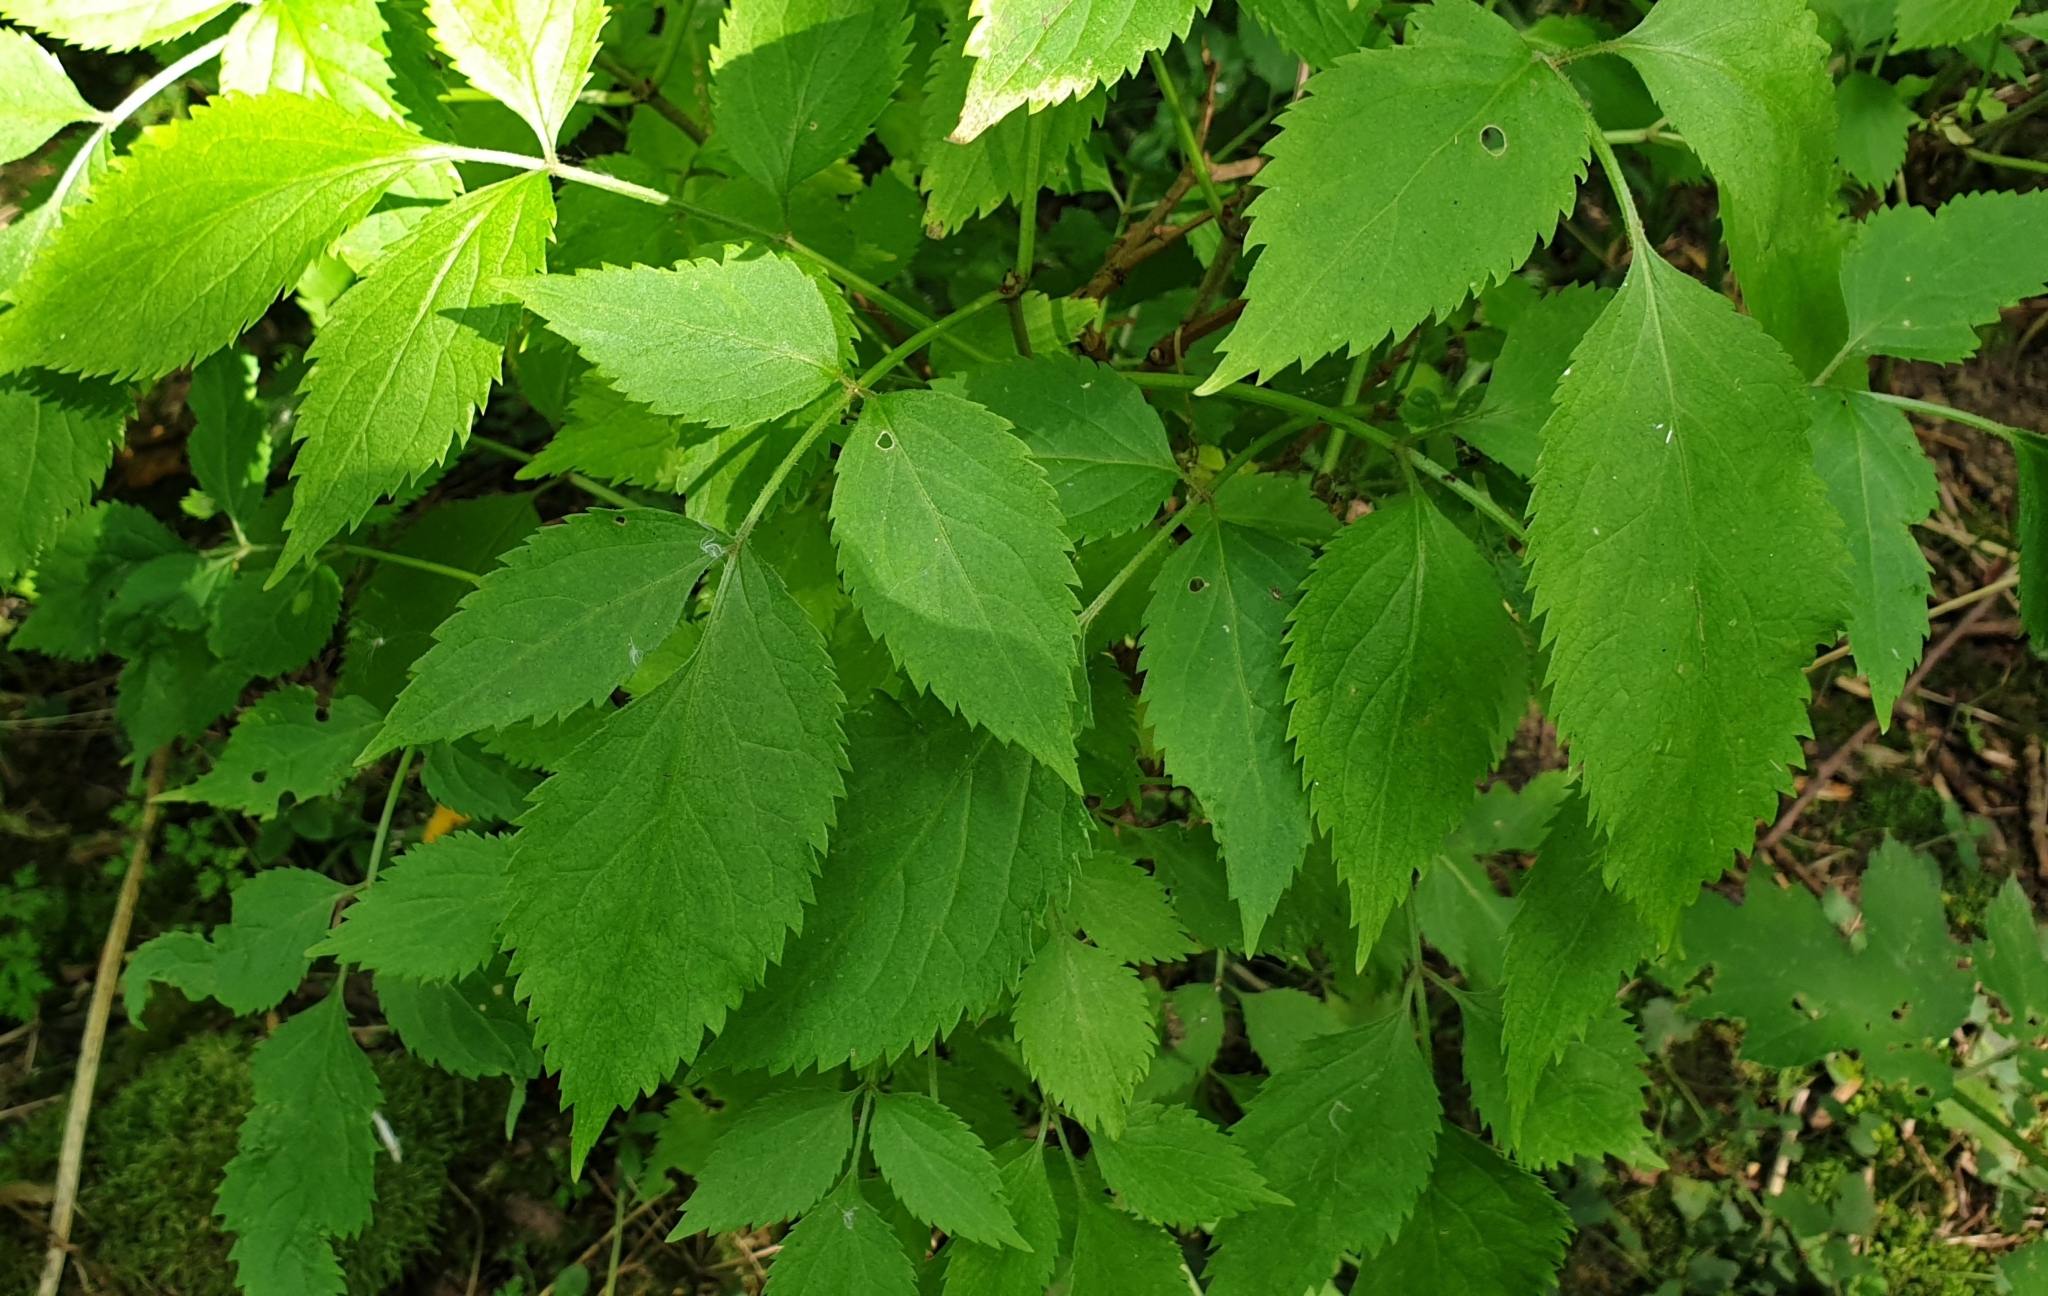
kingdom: Plantae
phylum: Tracheophyta
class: Magnoliopsida
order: Dipsacales
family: Viburnaceae
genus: Sambucus
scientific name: Sambucus nigra
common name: Elder
